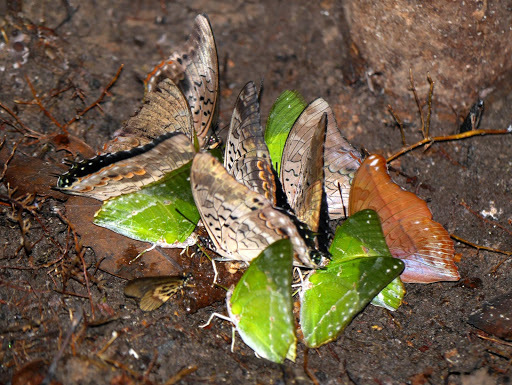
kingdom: Animalia
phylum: Arthropoda
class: Insecta
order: Lepidoptera
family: Nymphalidae
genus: Acraea
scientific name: Acraea
